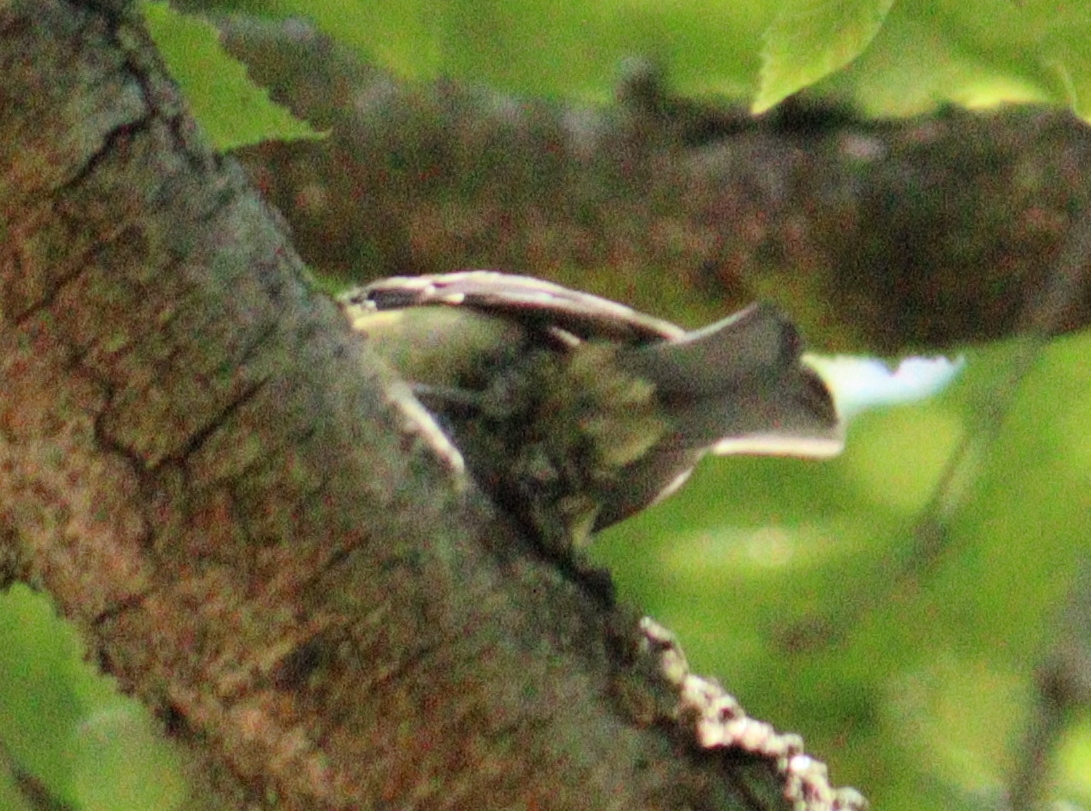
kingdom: Animalia
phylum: Chordata
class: Aves
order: Passeriformes
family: Paridae
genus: Parus
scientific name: Parus major
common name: Great tit
